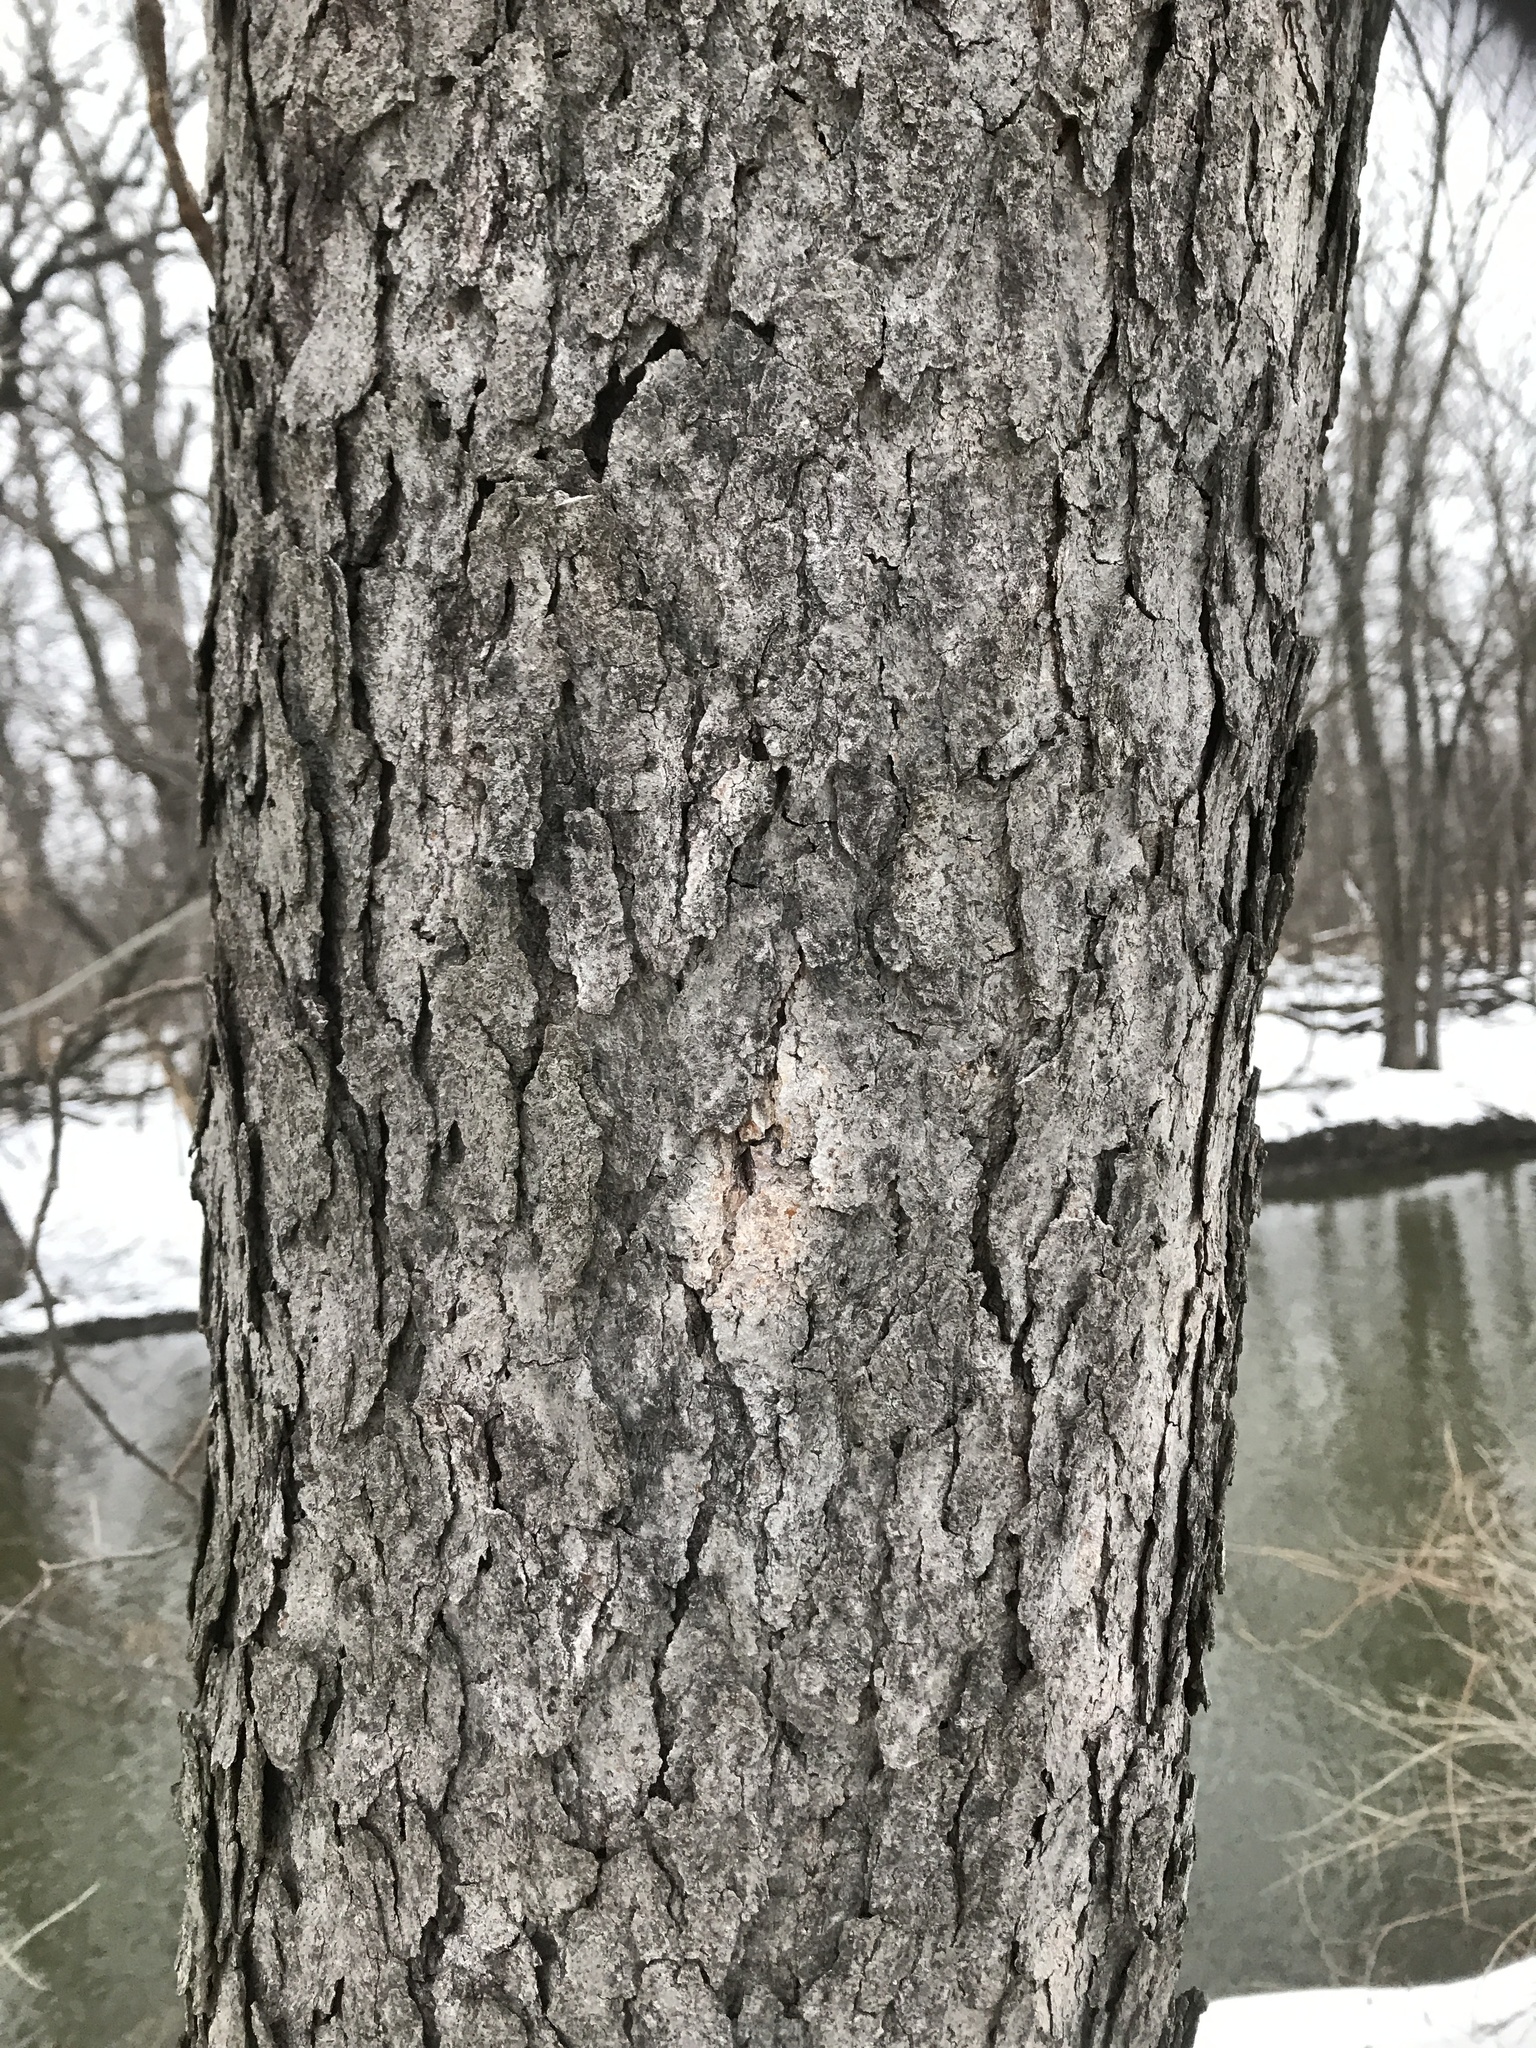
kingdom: Plantae
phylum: Tracheophyta
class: Magnoliopsida
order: Fagales
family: Fagaceae
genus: Quercus
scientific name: Quercus alba
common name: White oak
